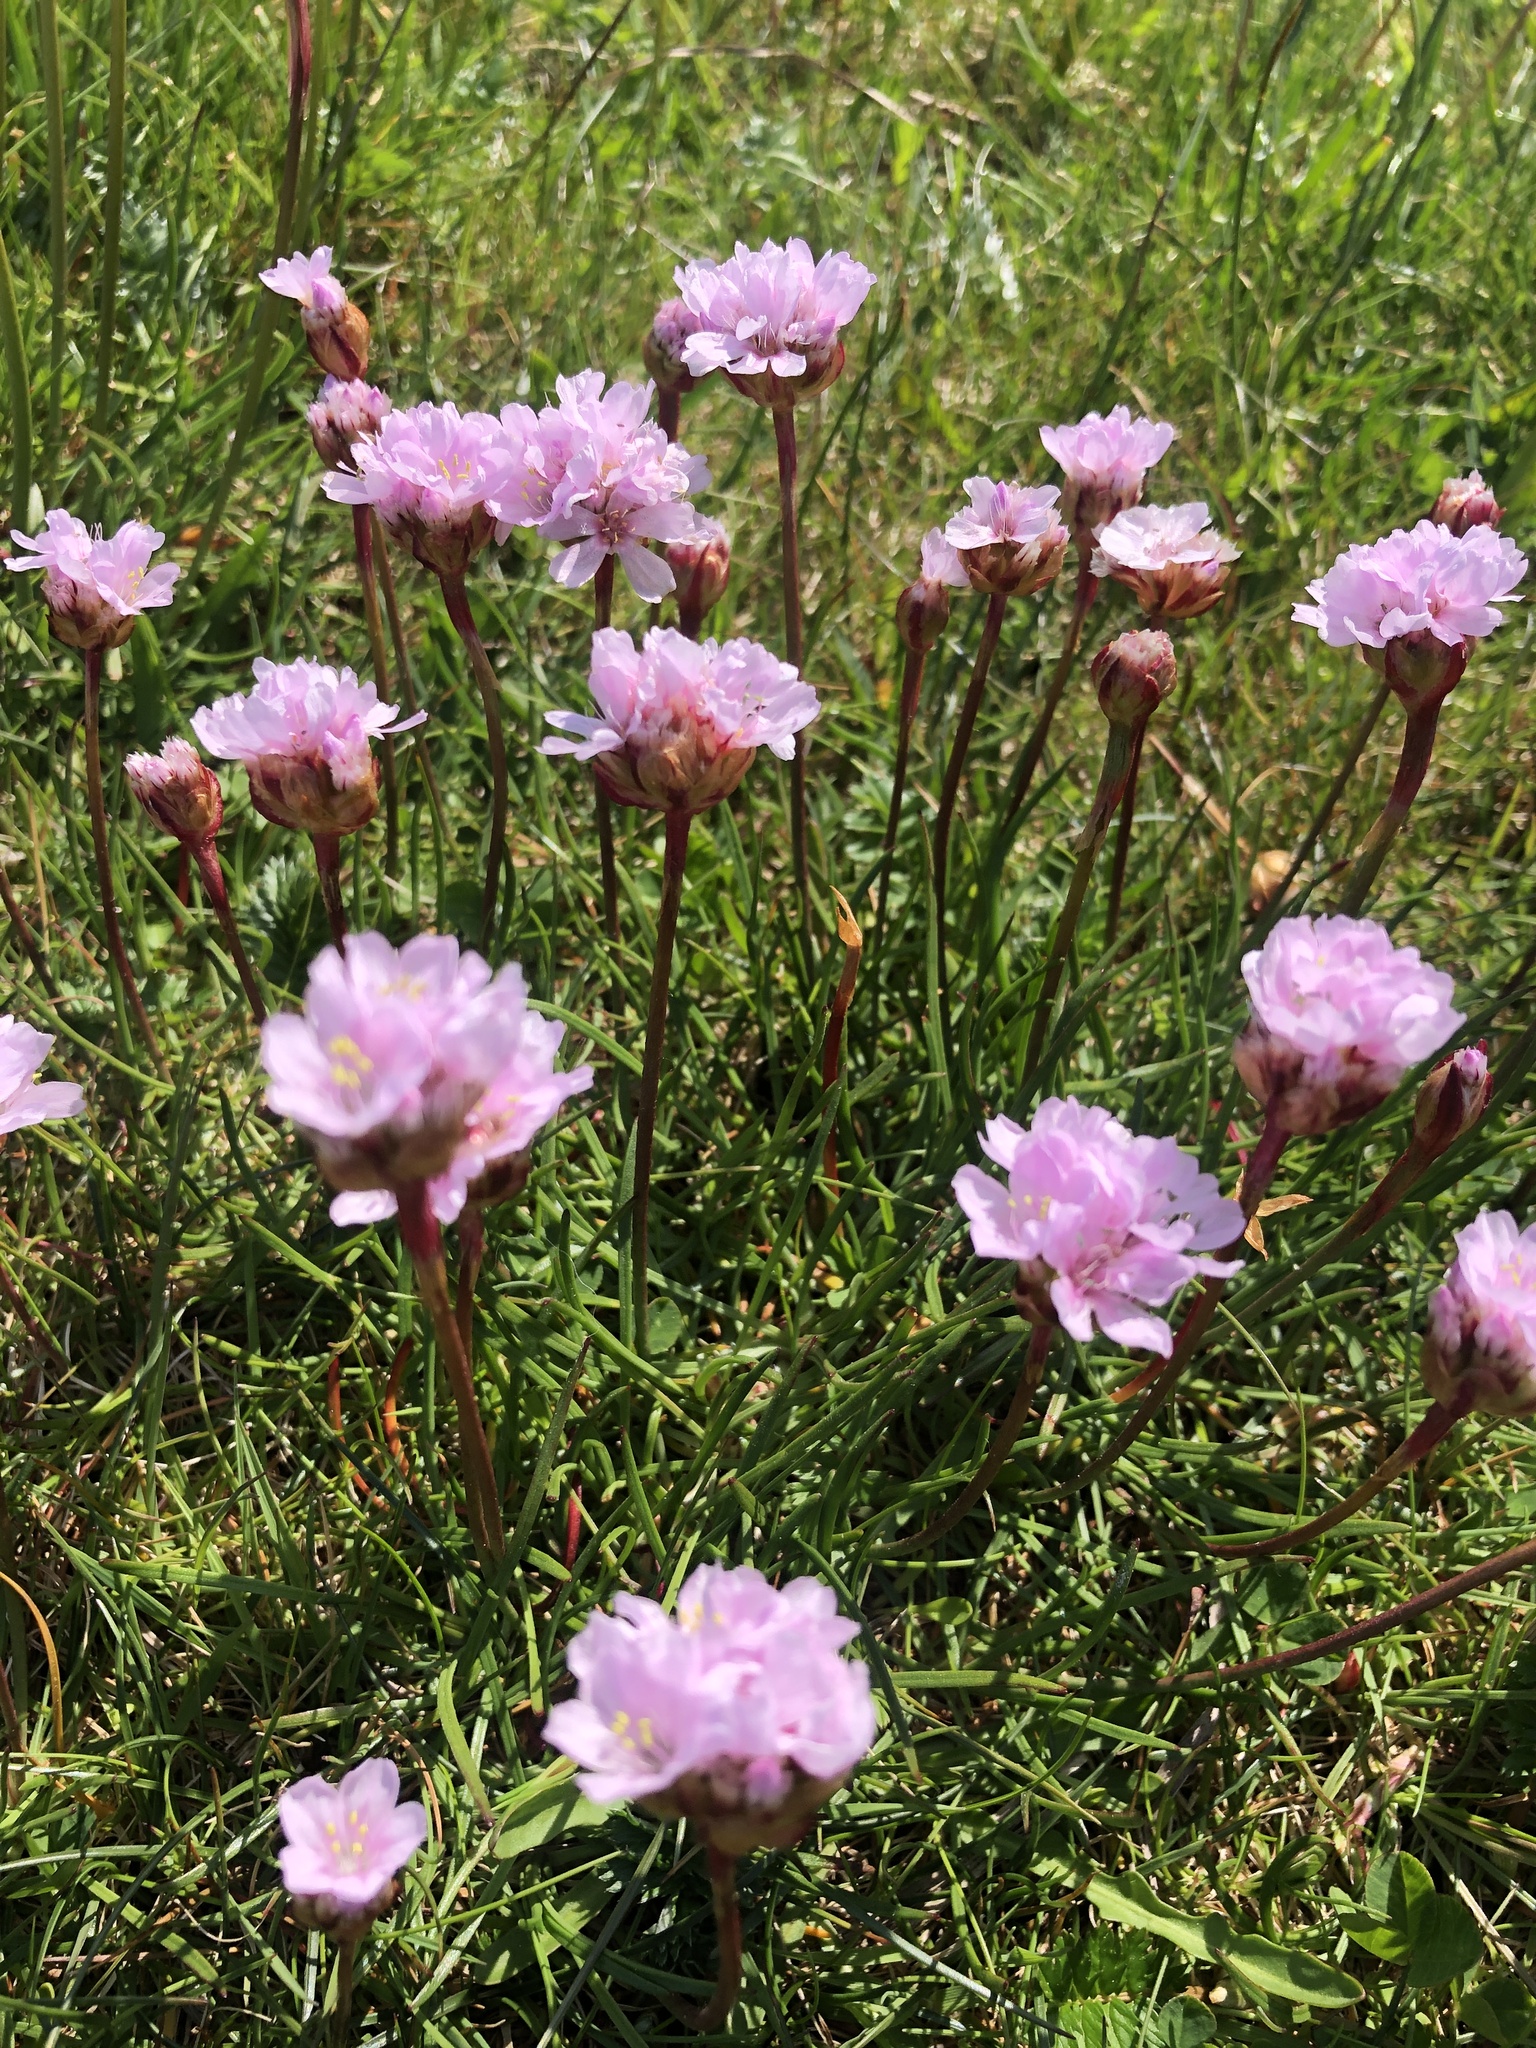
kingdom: Plantae
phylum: Tracheophyta
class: Magnoliopsida
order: Caryophyllales
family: Plumbaginaceae
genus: Armeria
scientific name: Armeria maritima
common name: Thrift
